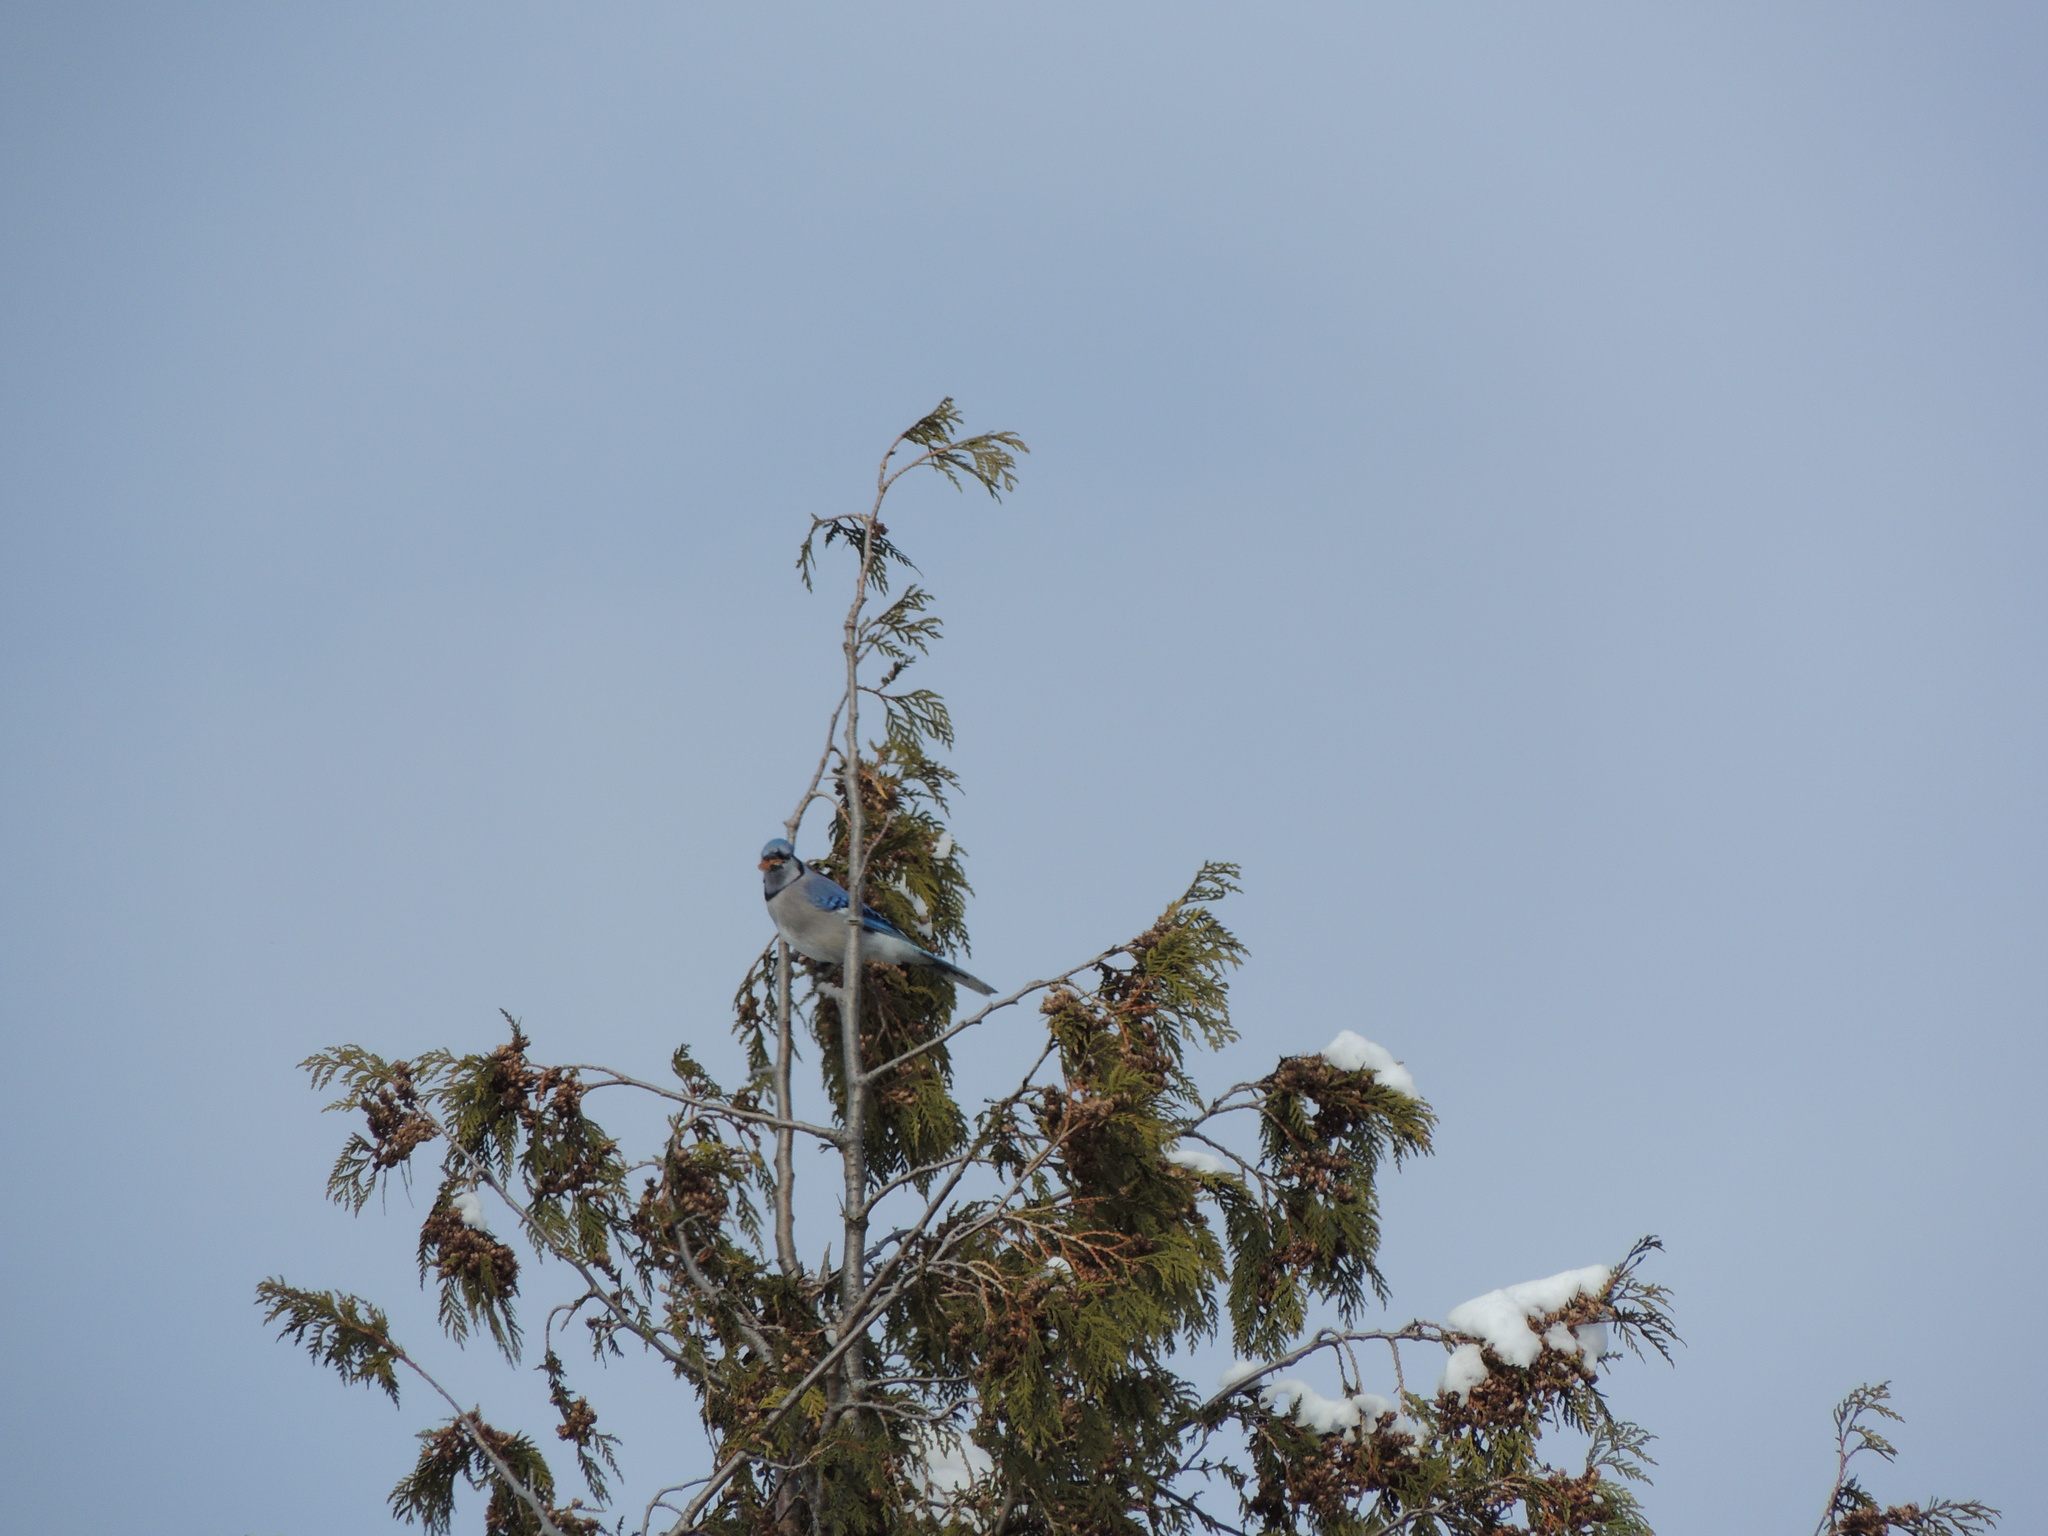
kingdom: Animalia
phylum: Chordata
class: Aves
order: Passeriformes
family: Corvidae
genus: Cyanocitta
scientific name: Cyanocitta cristata
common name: Blue jay
